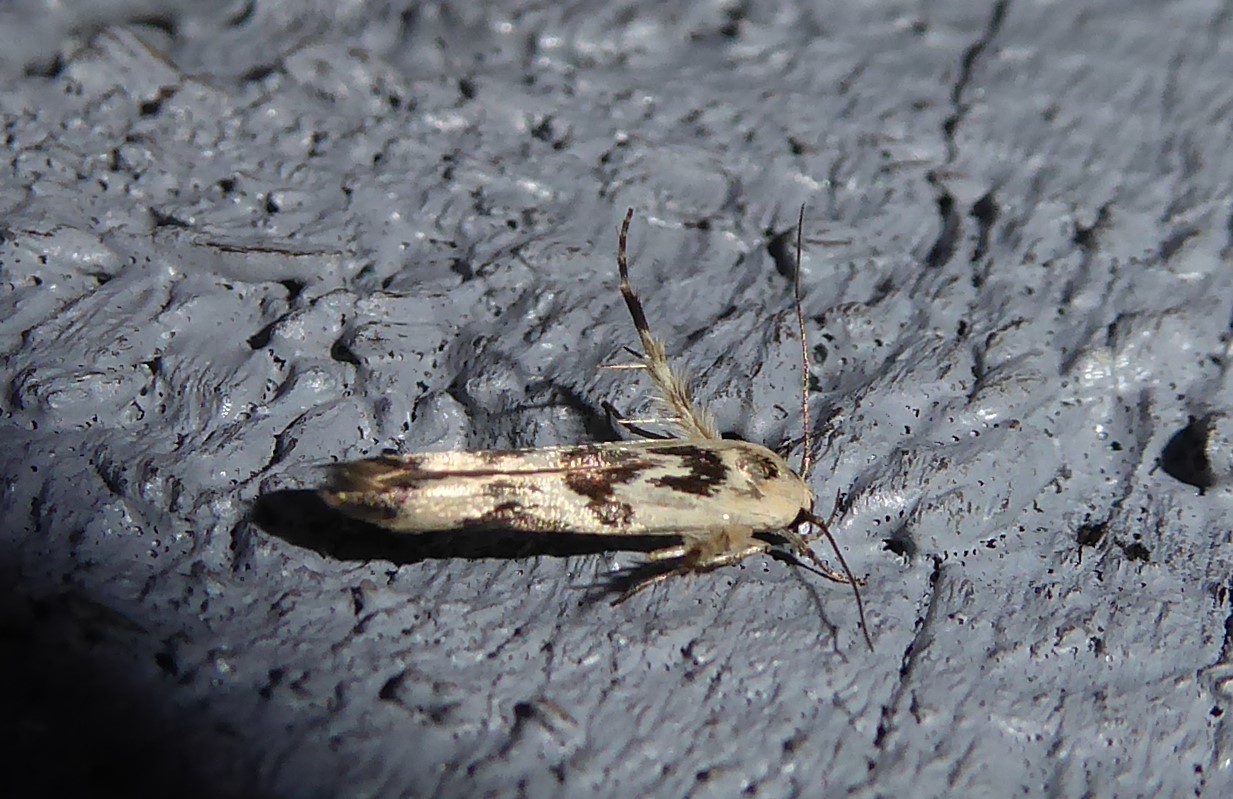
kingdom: Animalia
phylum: Arthropoda
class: Insecta
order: Lepidoptera
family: Stathmopodidae
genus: Stathmopoda
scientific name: Stathmopoda melanochra
